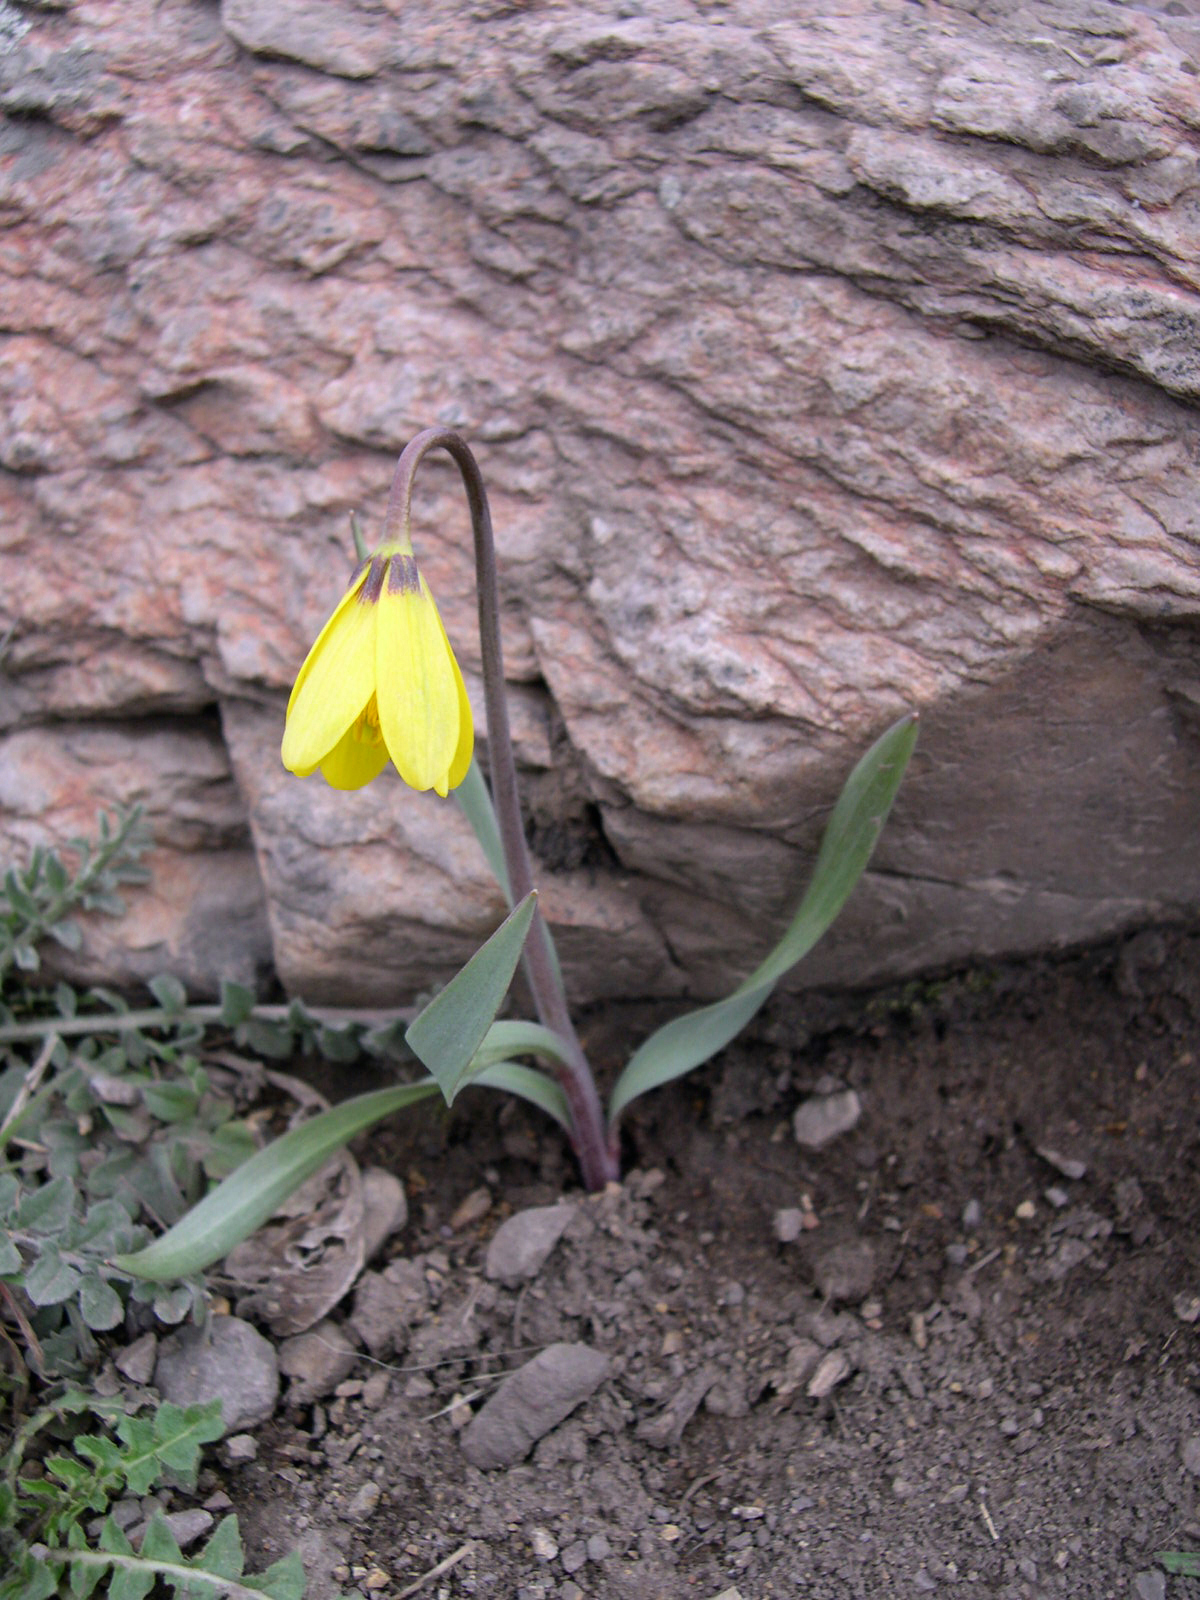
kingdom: Plantae
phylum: Tracheophyta
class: Liliopsida
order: Liliales
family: Liliaceae
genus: Fritillaria
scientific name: Fritillaria pudica
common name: Yellow fritillary
